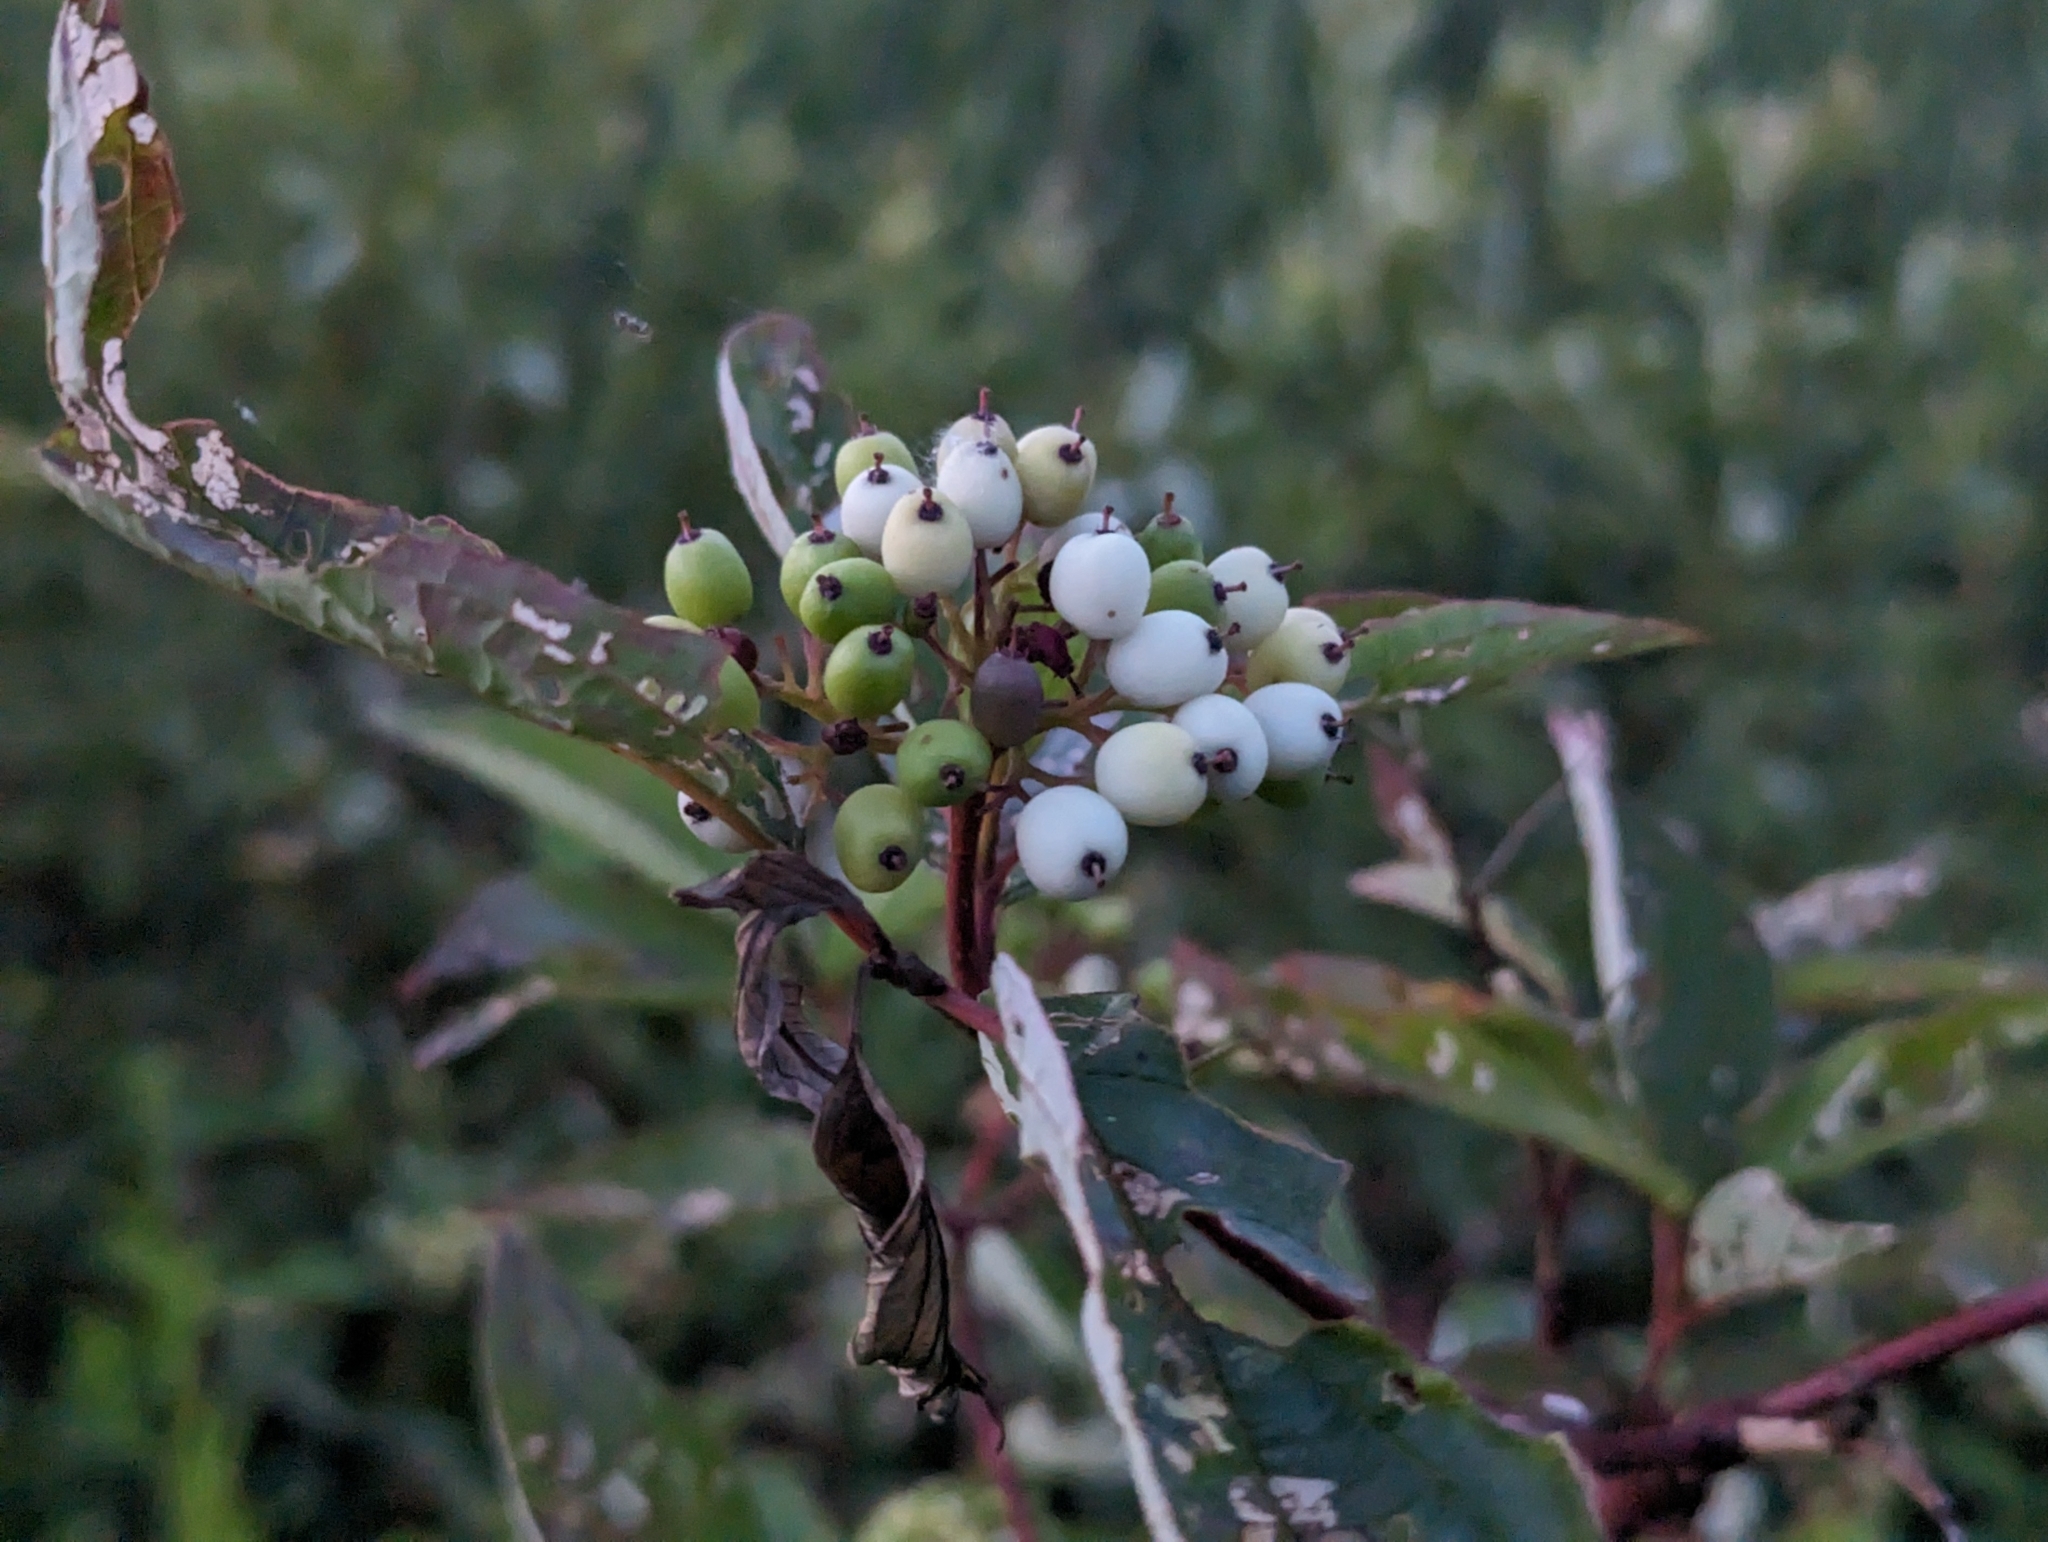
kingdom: Plantae
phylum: Tracheophyta
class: Magnoliopsida
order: Cornales
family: Cornaceae
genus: Cornus
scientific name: Cornus sericea
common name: Red-osier dogwood
